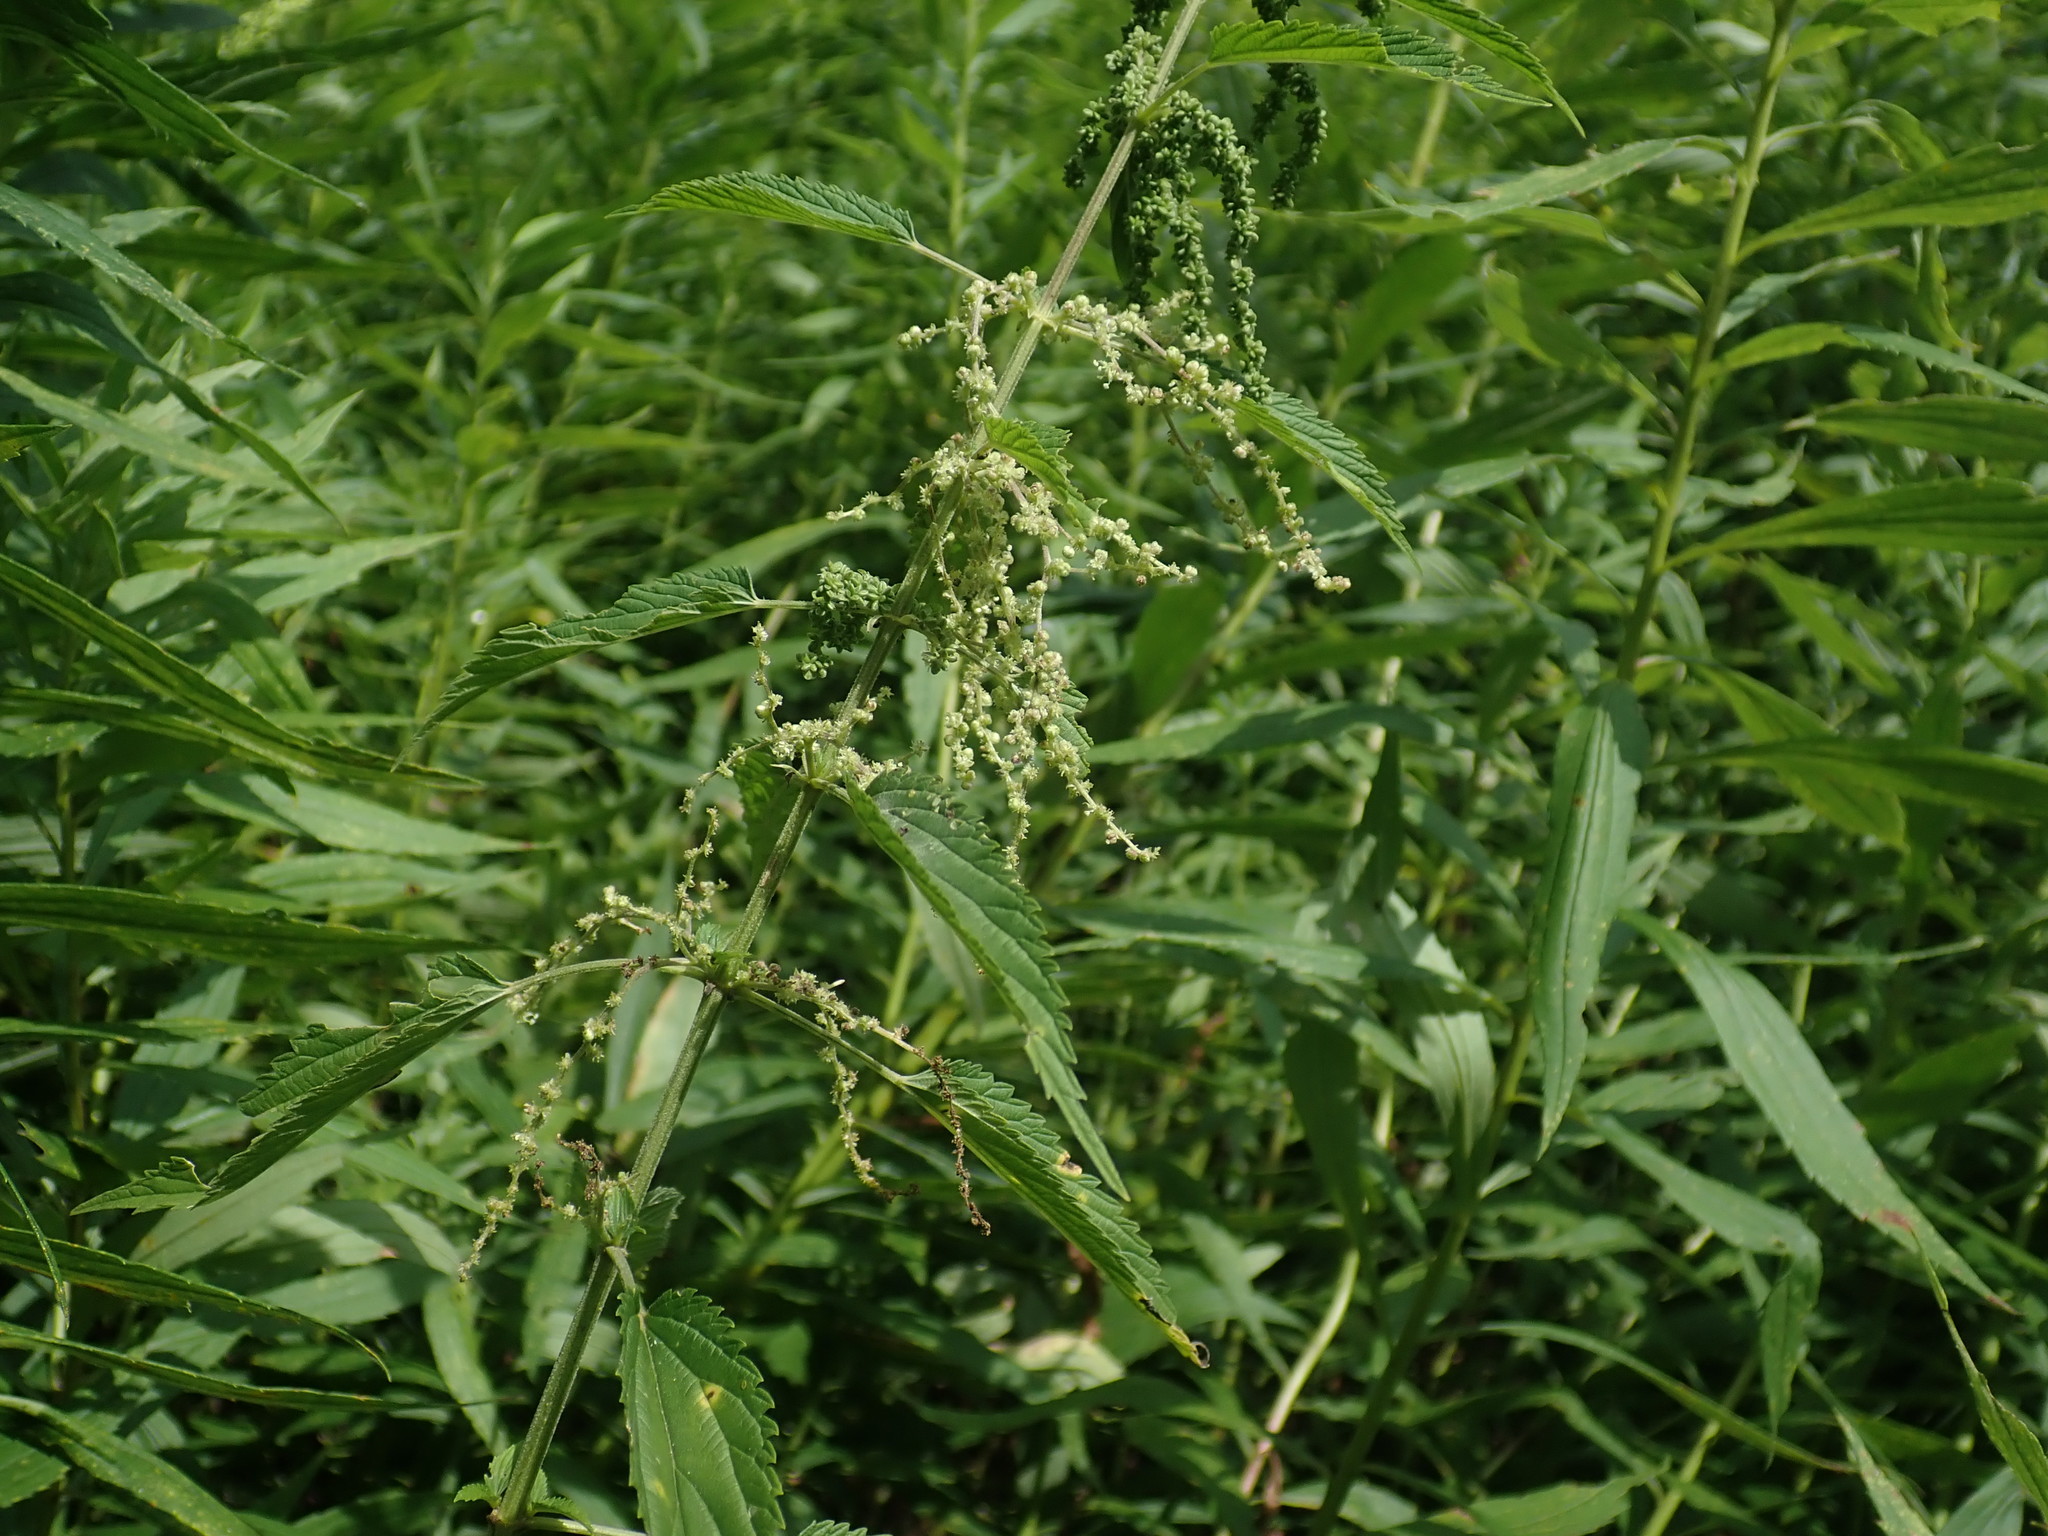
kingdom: Plantae
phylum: Tracheophyta
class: Magnoliopsida
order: Rosales
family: Urticaceae
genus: Urtica
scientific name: Urtica dioica
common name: Common nettle
